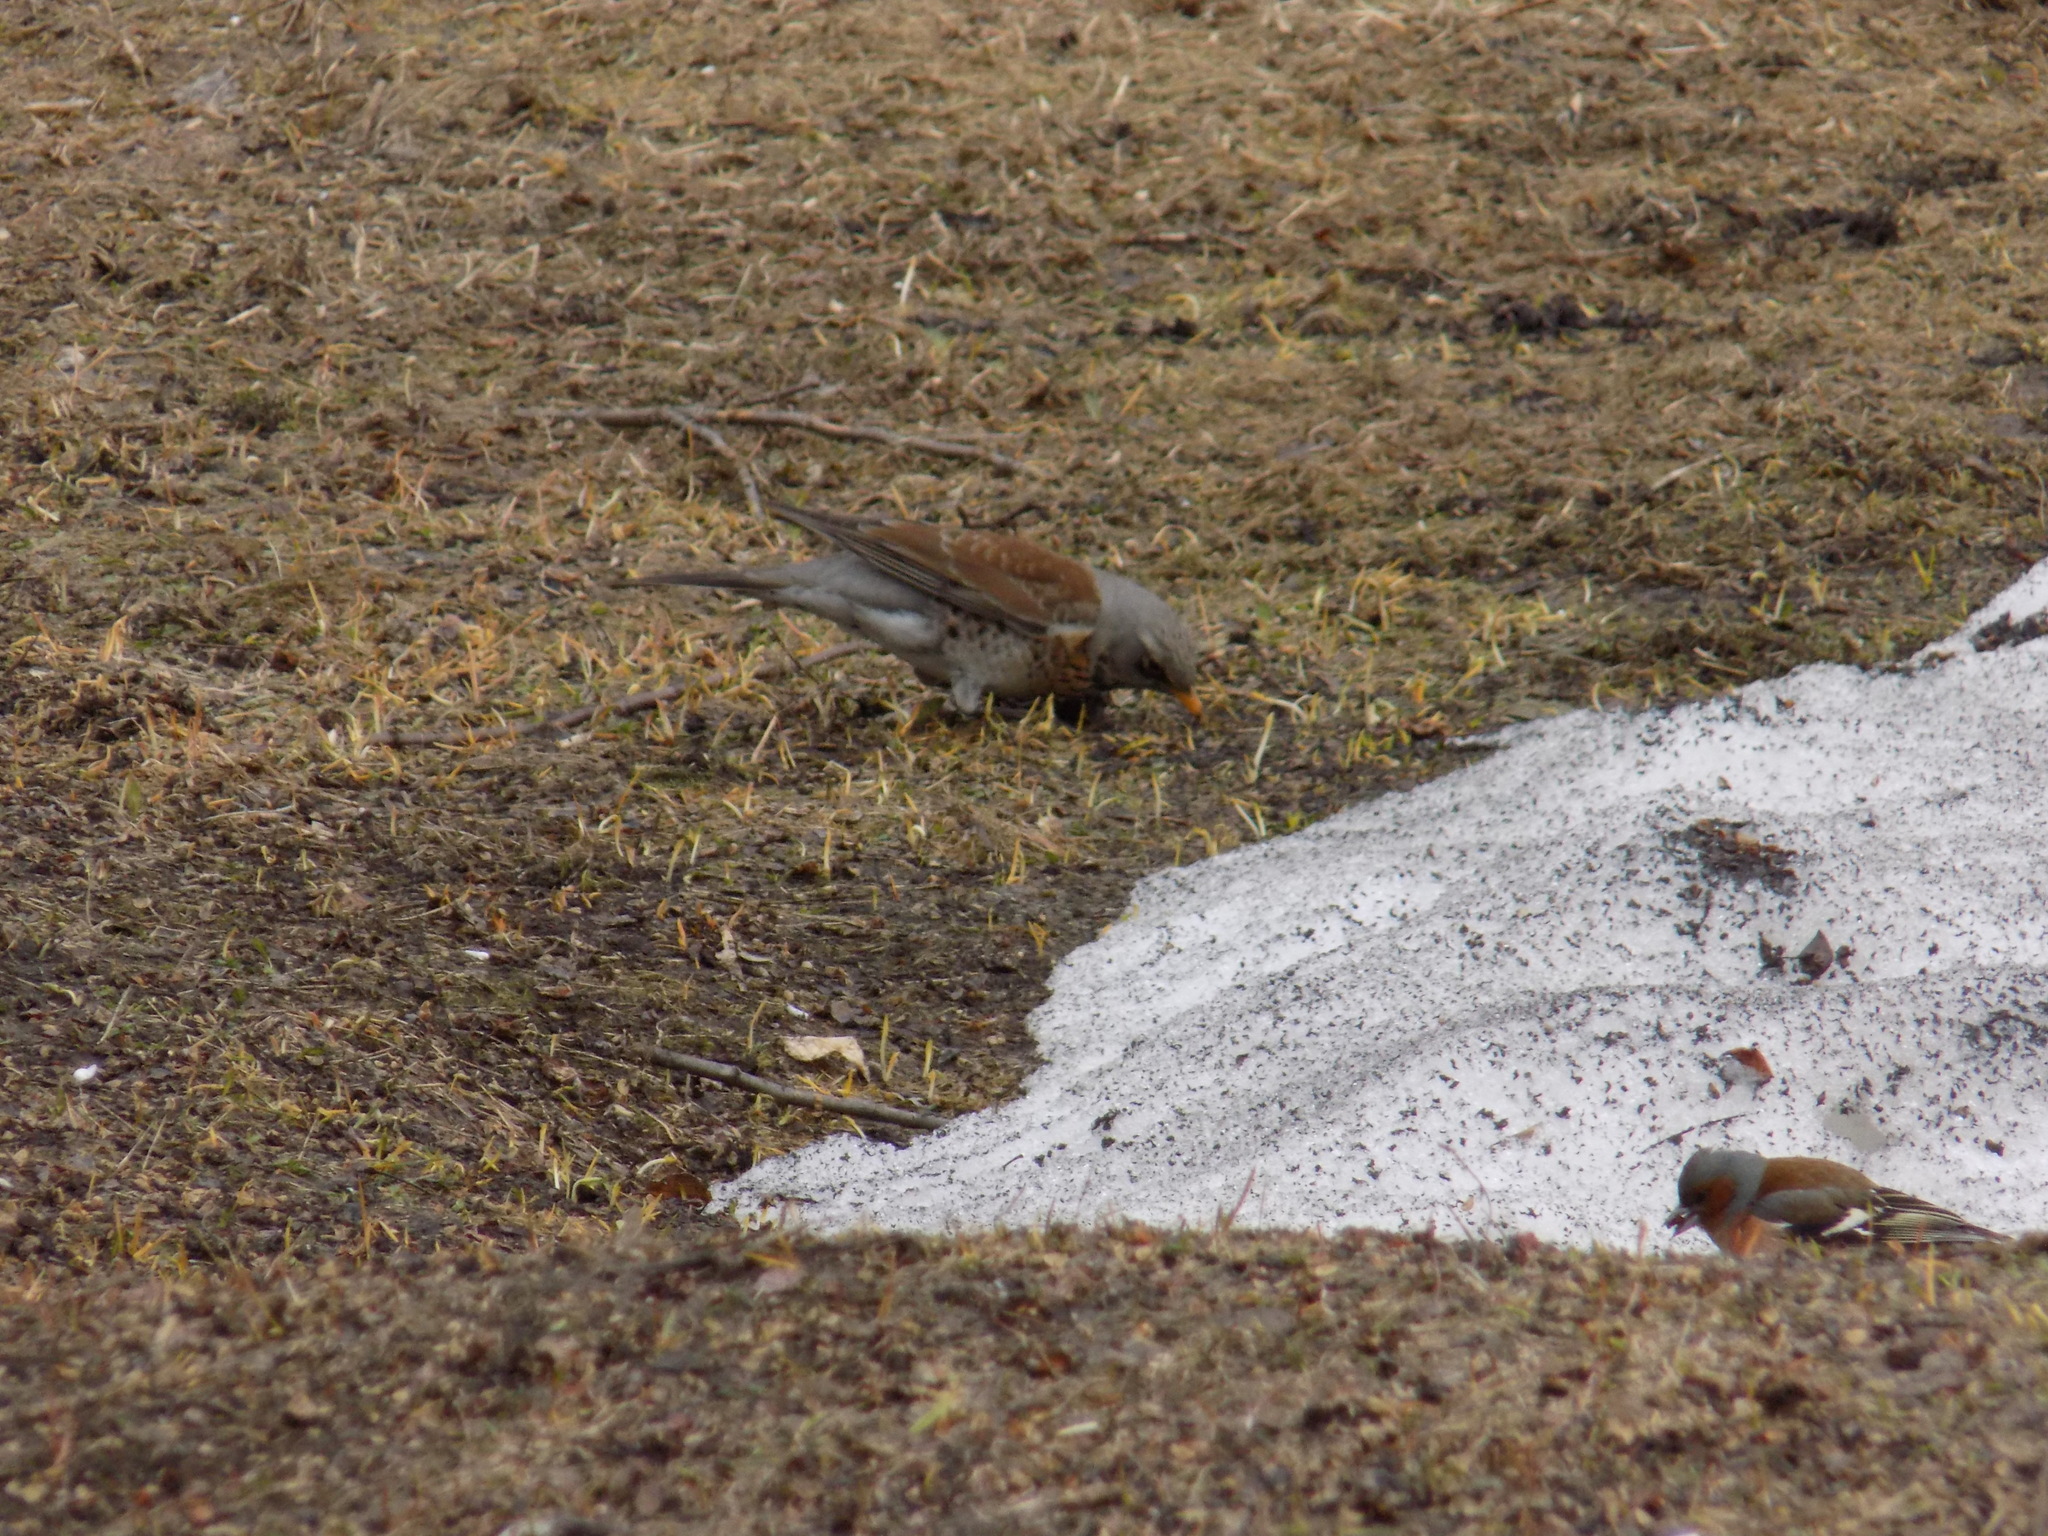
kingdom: Animalia
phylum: Chordata
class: Aves
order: Passeriformes
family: Turdidae
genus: Turdus
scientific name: Turdus pilaris
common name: Fieldfare
